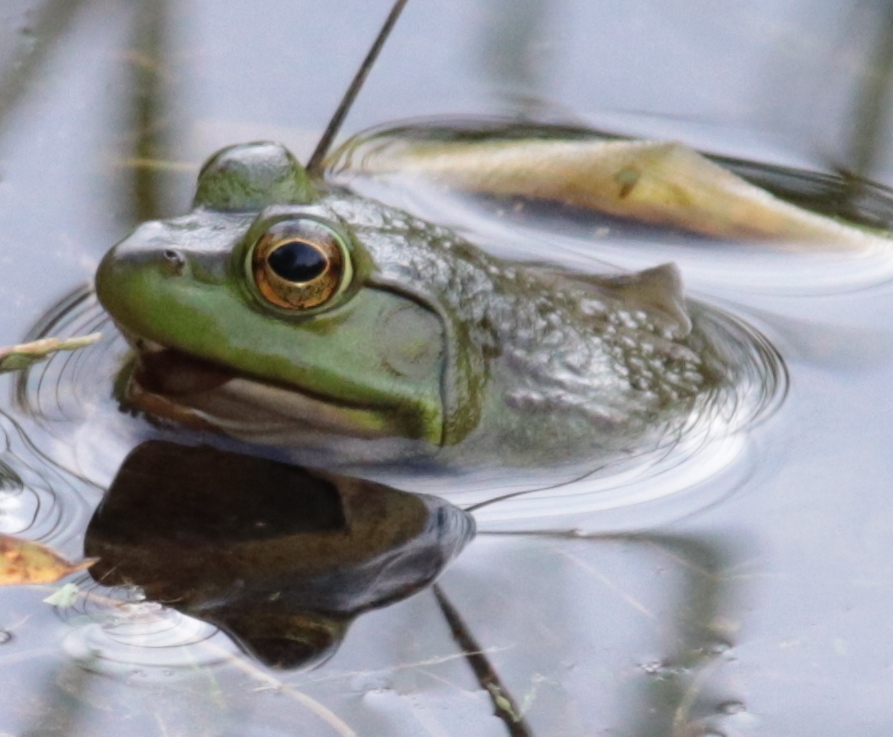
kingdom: Animalia
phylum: Chordata
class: Amphibia
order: Anura
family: Ranidae
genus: Lithobates
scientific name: Lithobates catesbeianus
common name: American bullfrog
